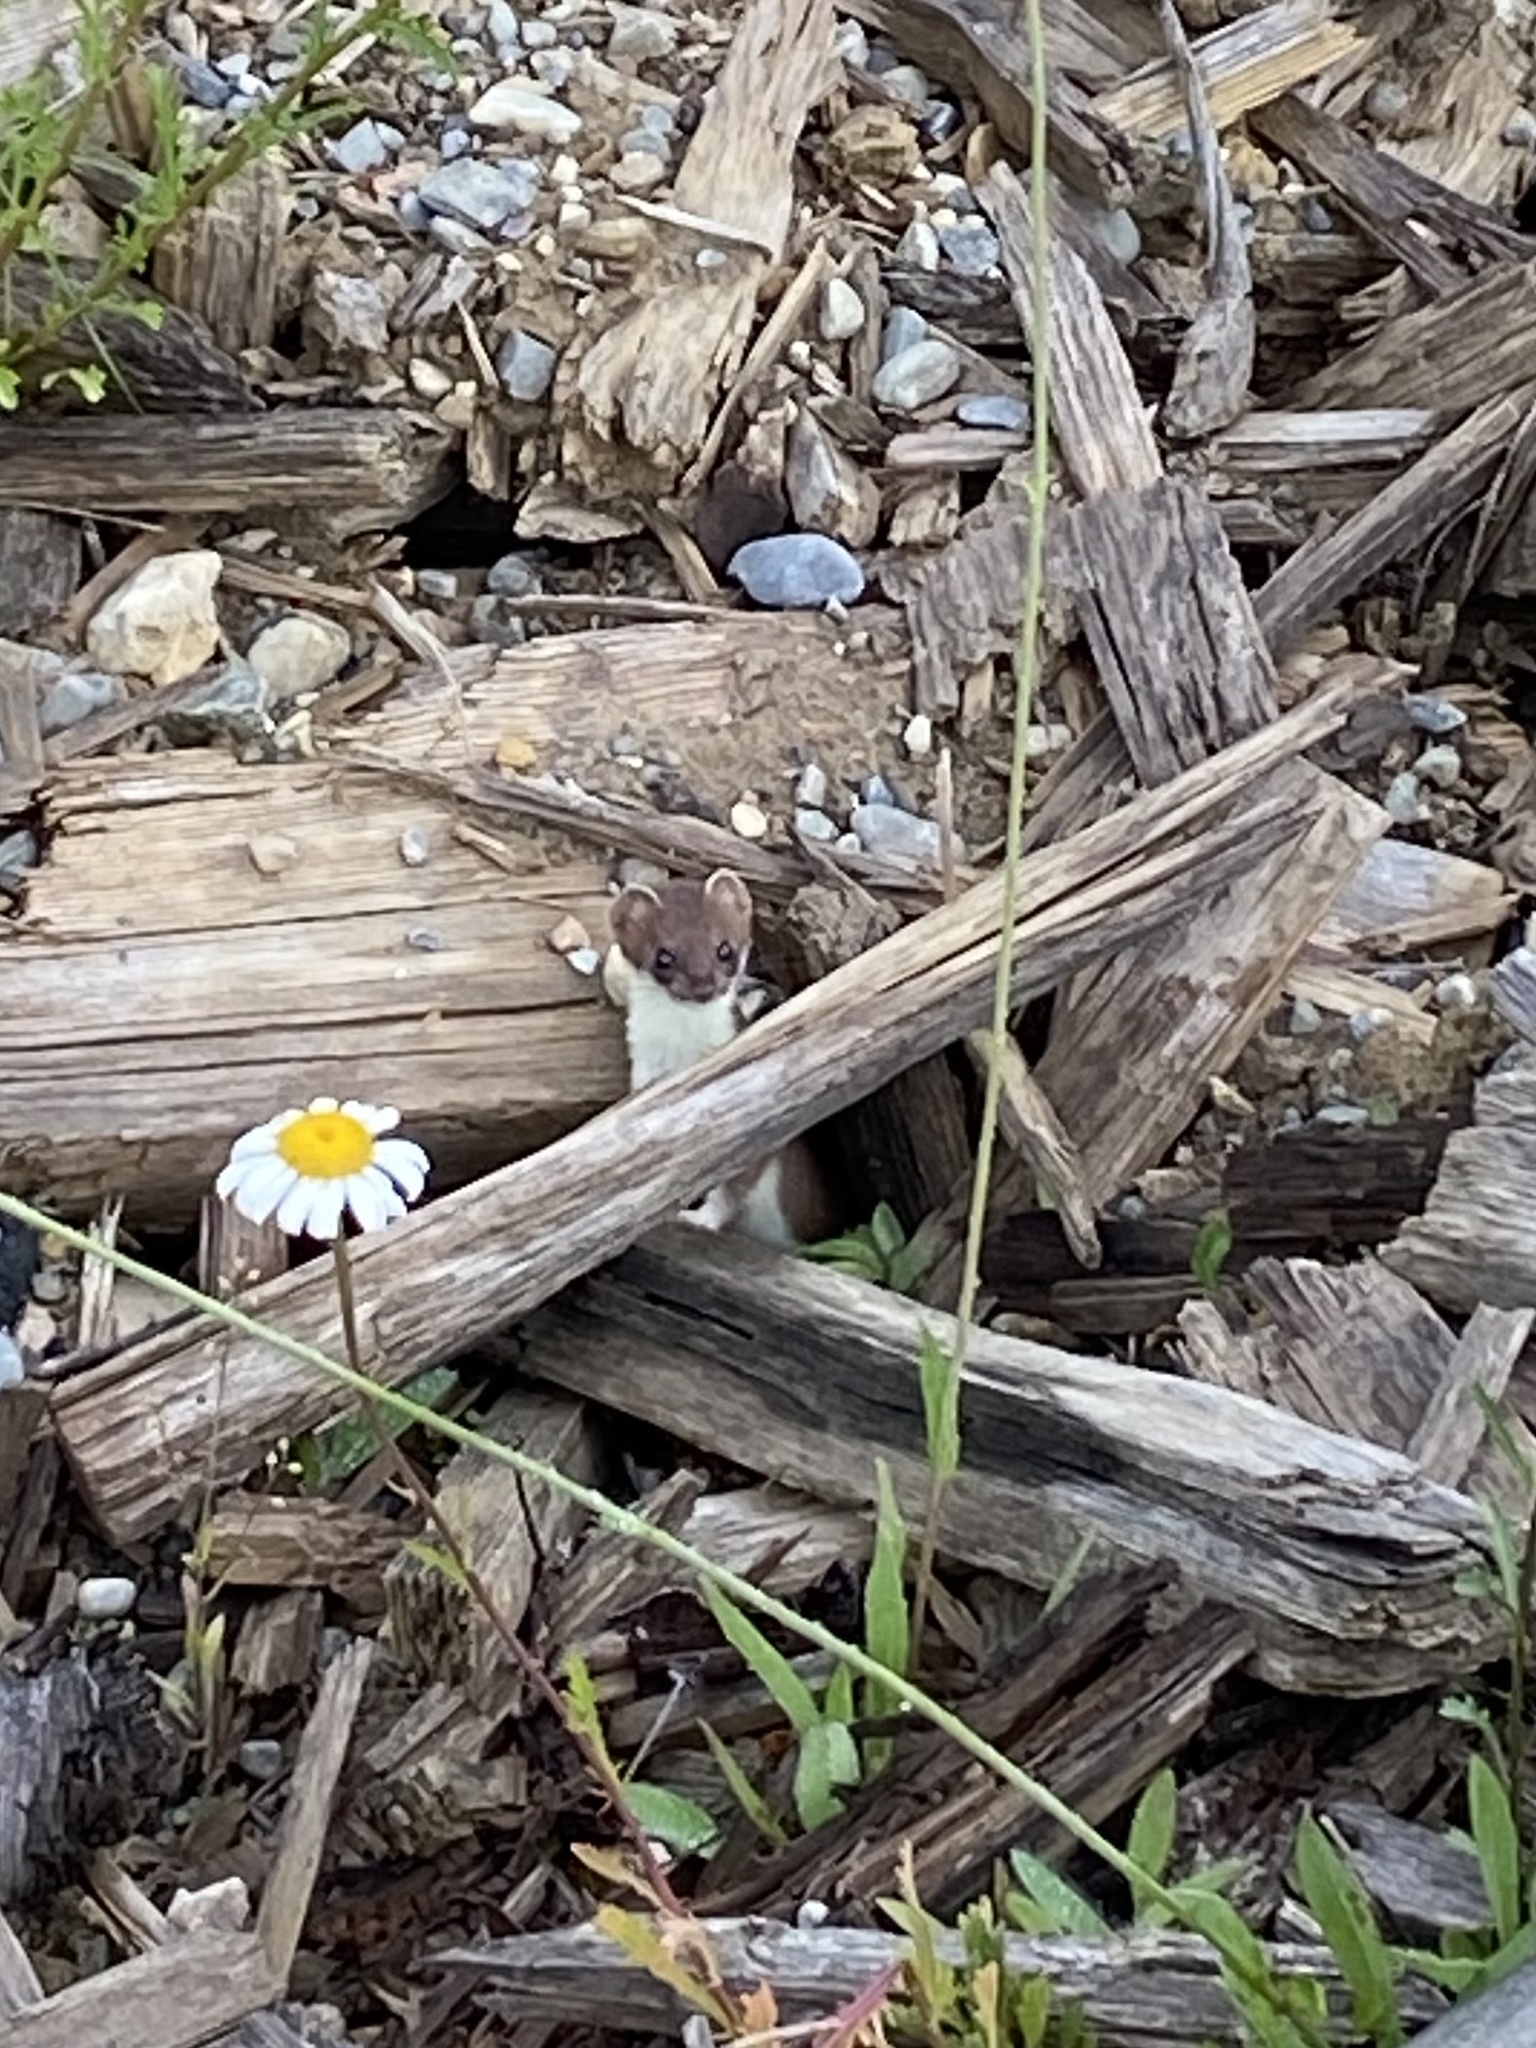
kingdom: Animalia
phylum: Chordata
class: Mammalia
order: Carnivora
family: Mustelidae
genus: Mustela
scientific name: Mustela erminea
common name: Stoat
